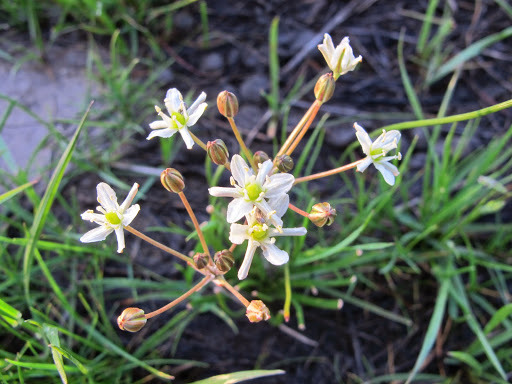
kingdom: Plantae
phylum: Tracheophyta
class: Liliopsida
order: Asparagales
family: Asparagaceae
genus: Muilla
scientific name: Muilla maritima
